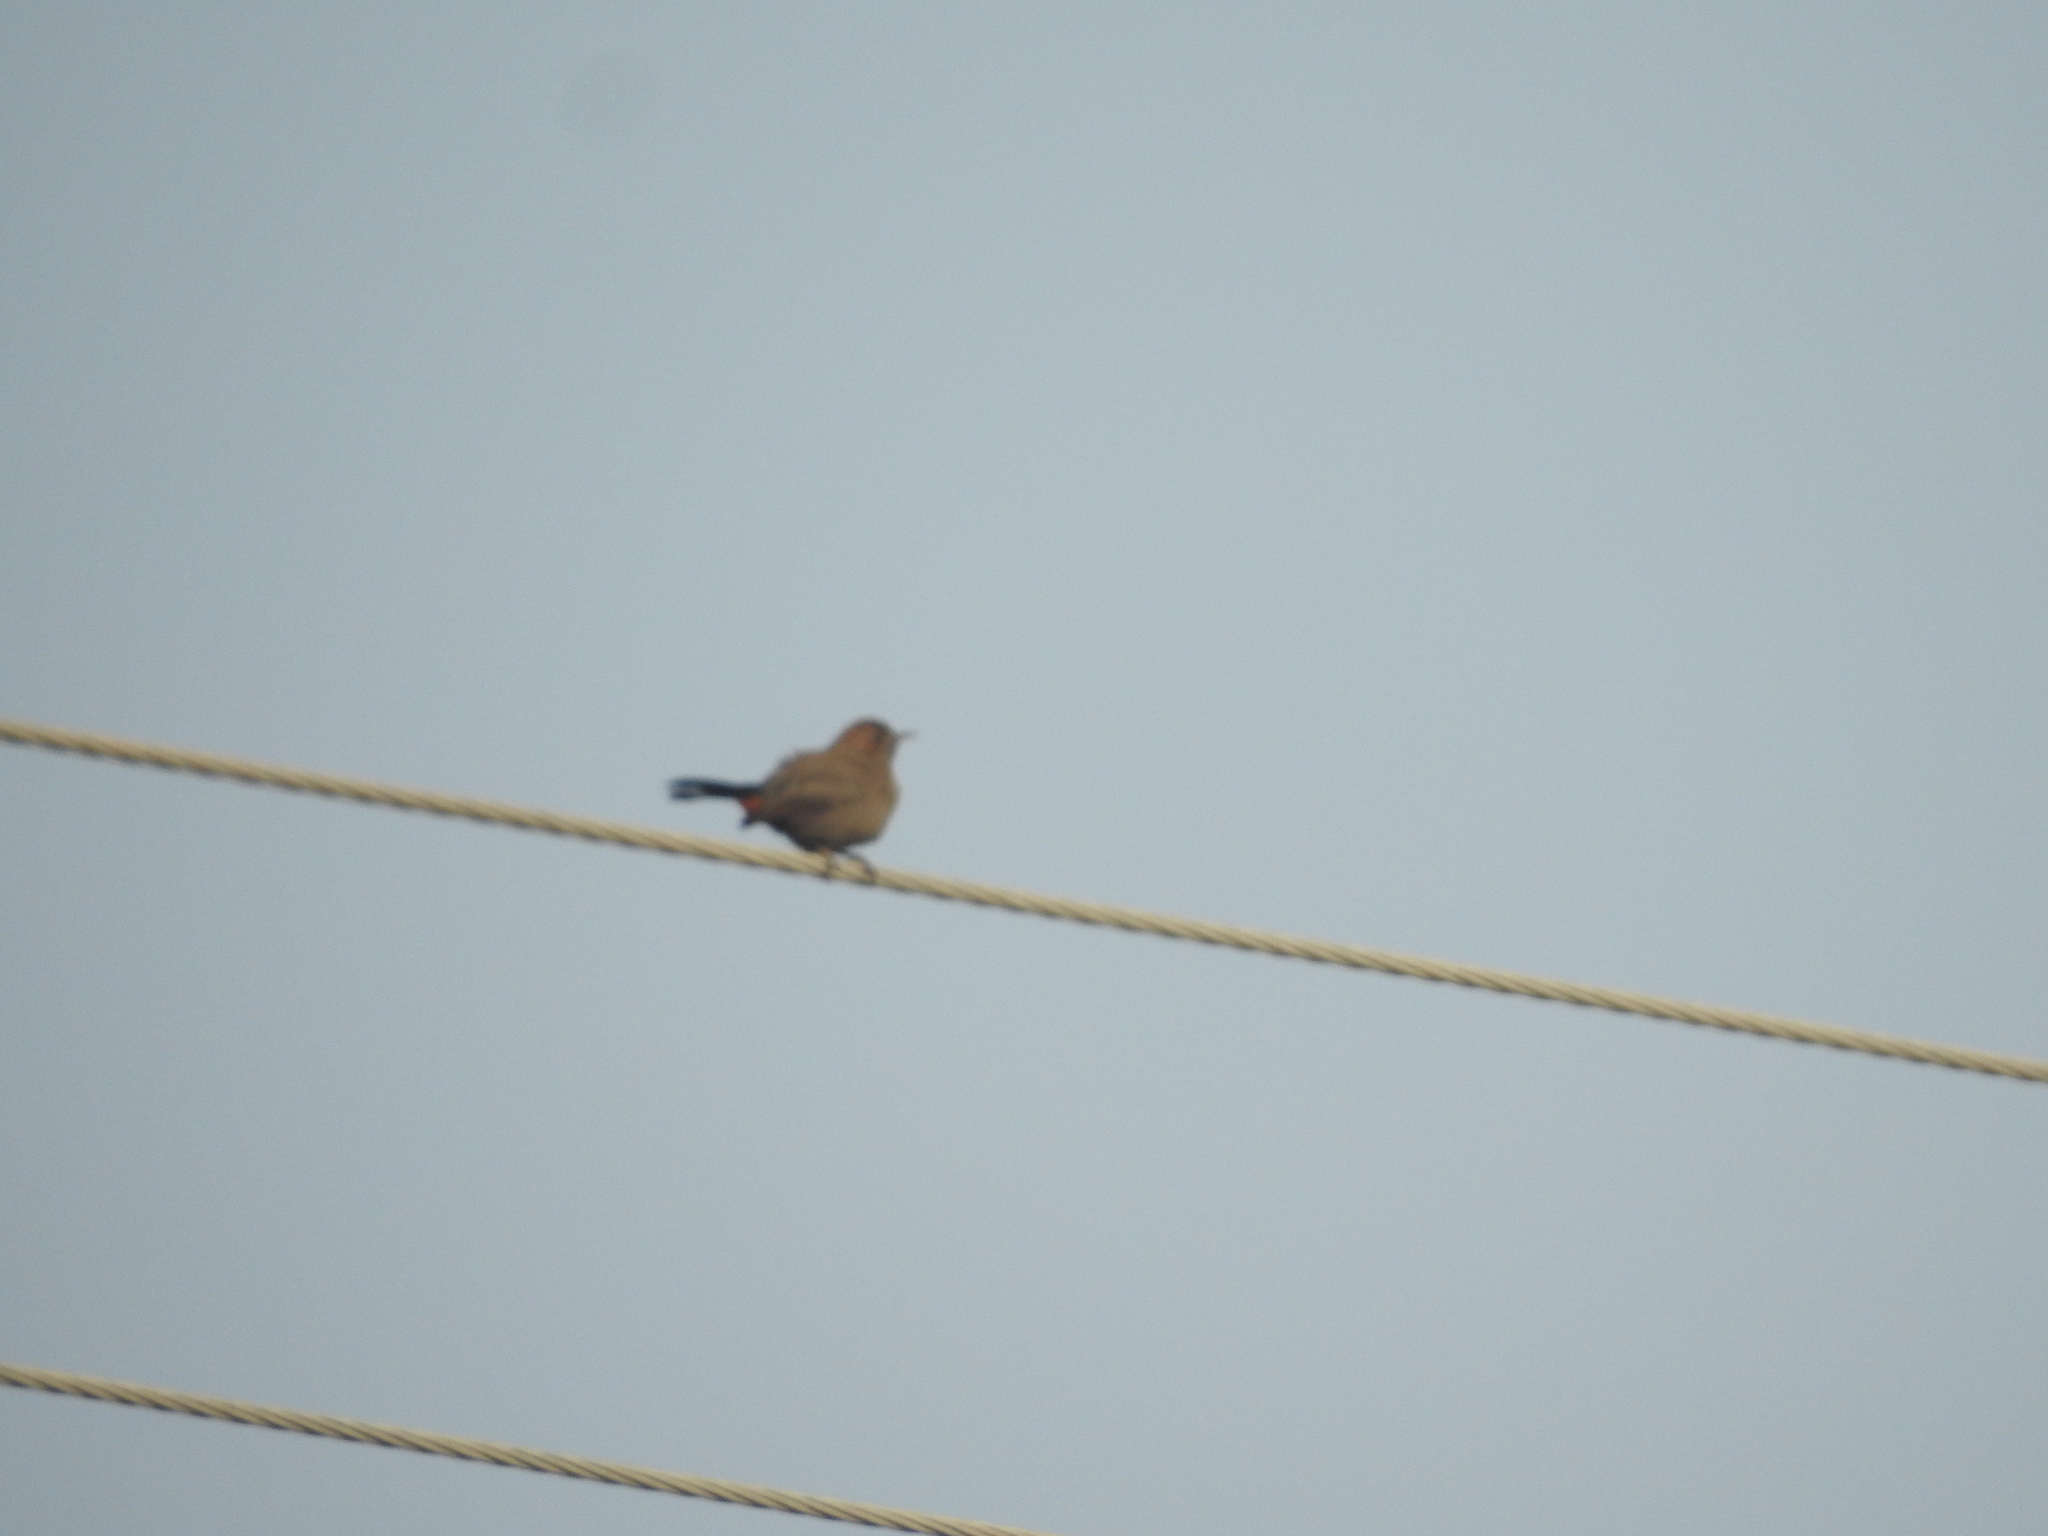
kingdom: Animalia
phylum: Chordata
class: Aves
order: Passeriformes
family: Muscicapidae
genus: Saxicoloides
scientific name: Saxicoloides fulicatus
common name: Indian robin
